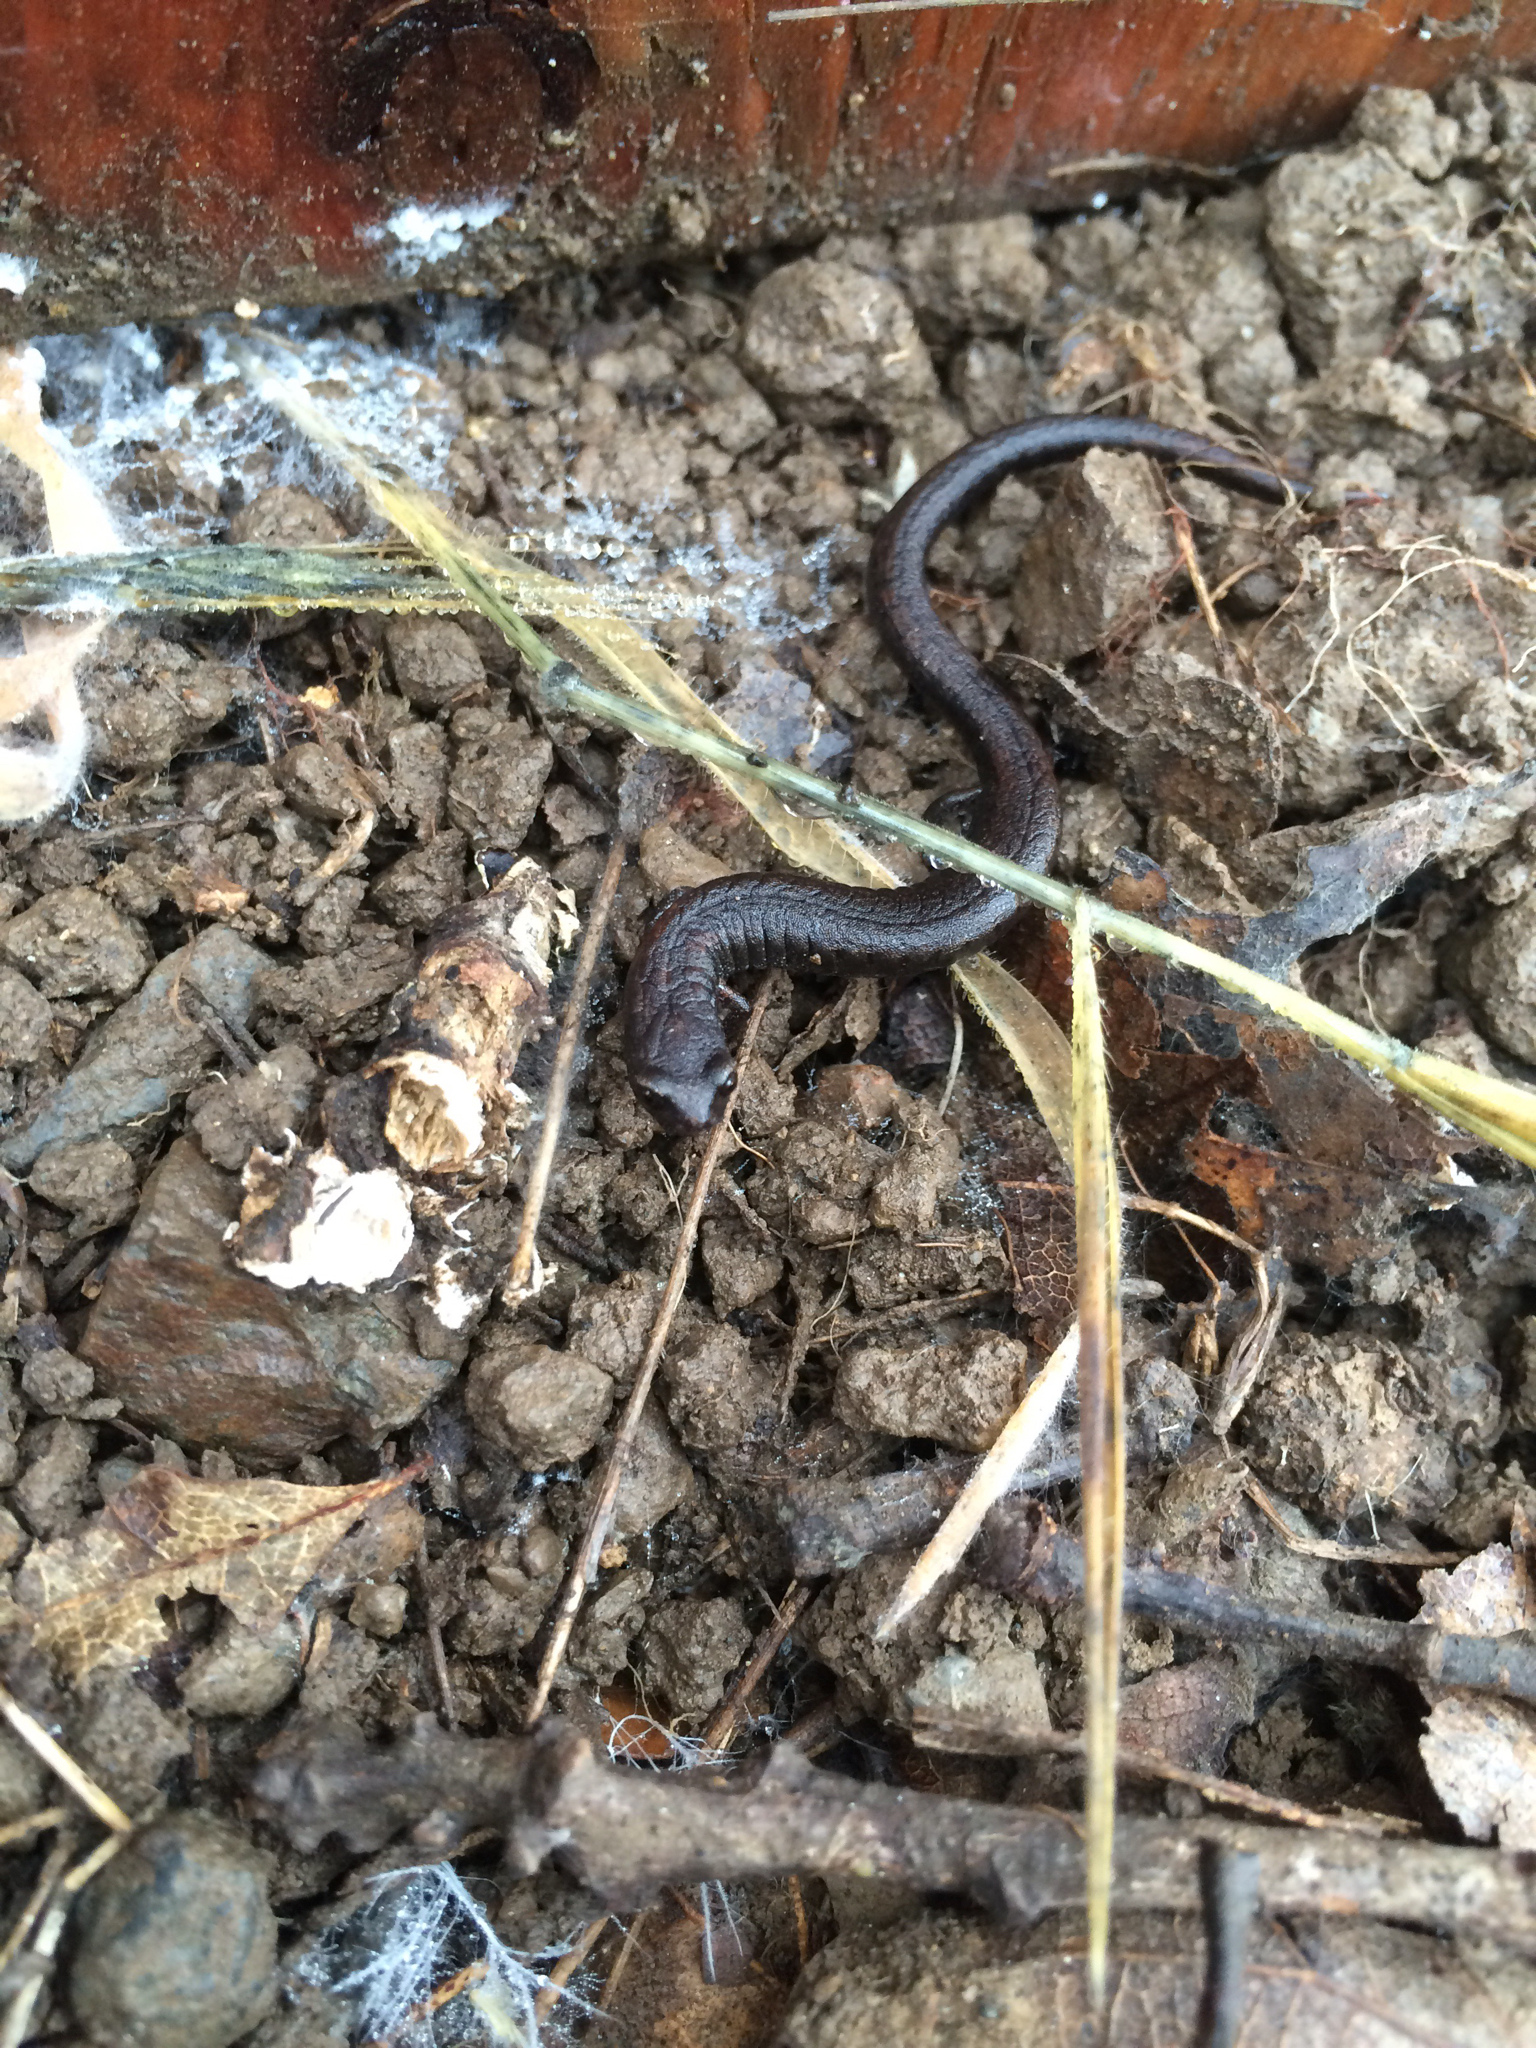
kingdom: Animalia
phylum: Chordata
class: Amphibia
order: Caudata
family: Plethodontidae
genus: Batrachoseps
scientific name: Batrachoseps attenuatus
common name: California slender salamander
